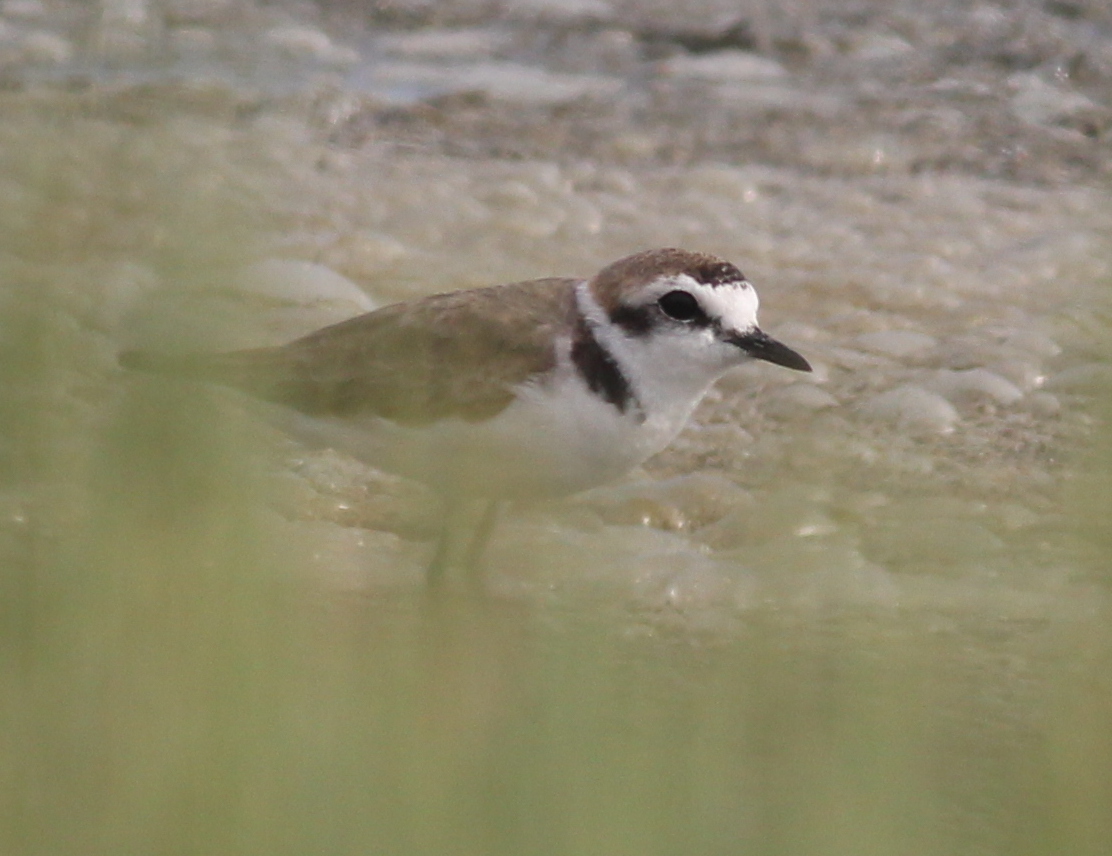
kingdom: Animalia
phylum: Chordata
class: Aves
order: Charadriiformes
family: Charadriidae
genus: Charadrius
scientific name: Charadrius alexandrinus
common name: Kentish plover
